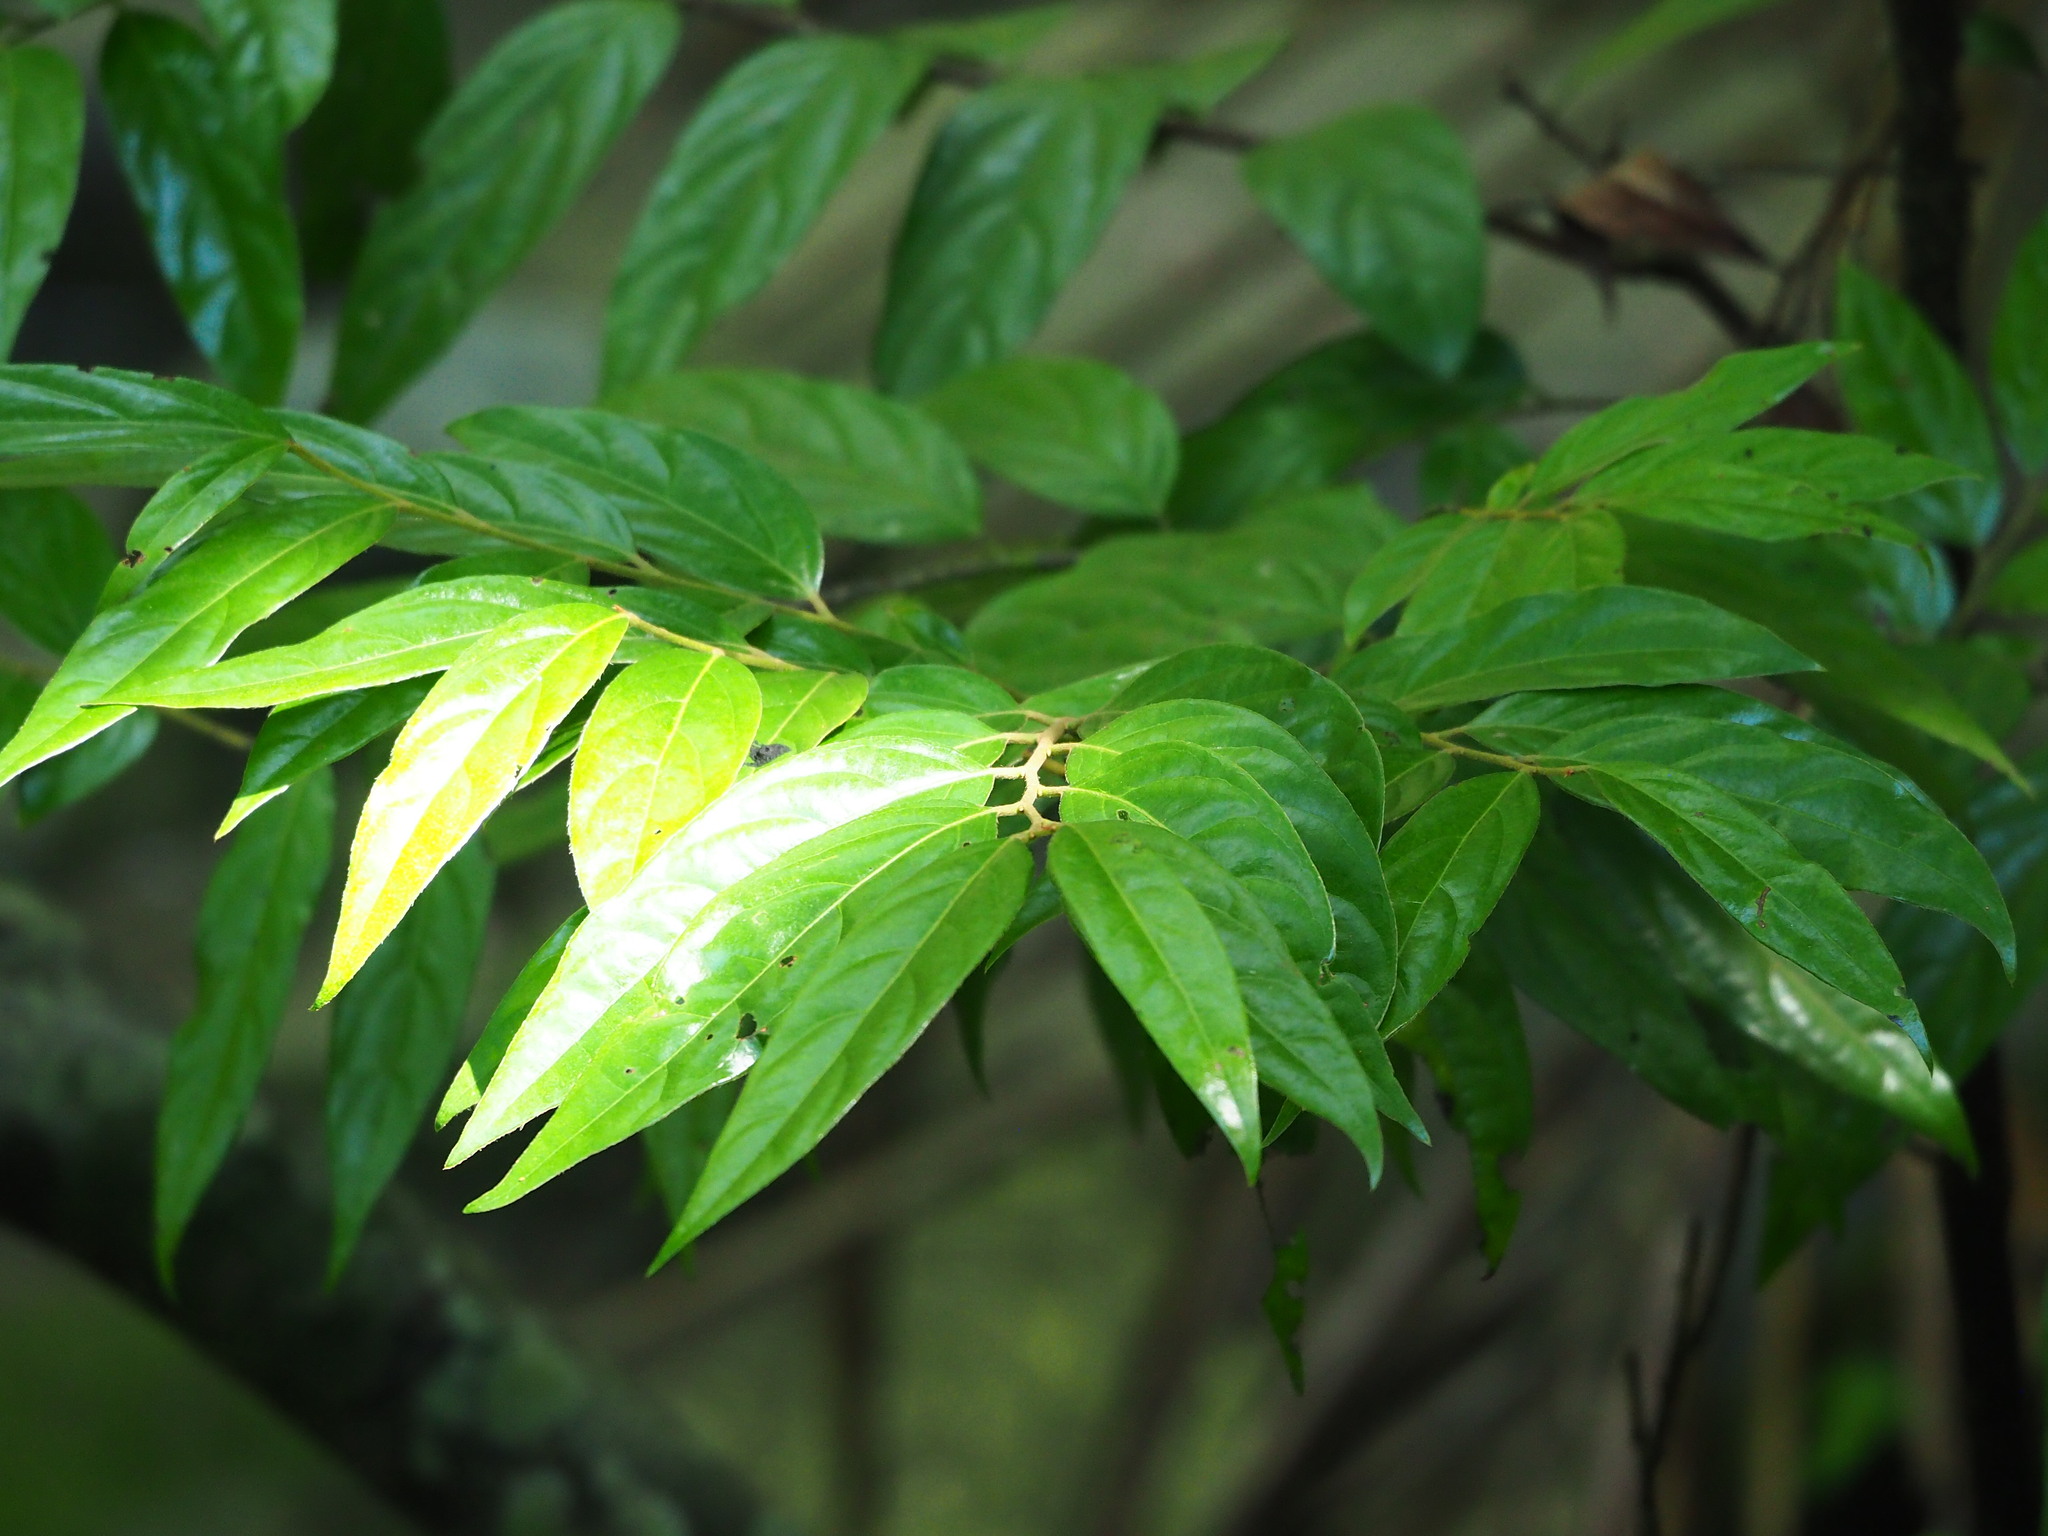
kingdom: Plantae
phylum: Tracheophyta
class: Magnoliopsida
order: Ericales
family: Ebenaceae
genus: Diospyros
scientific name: Diospyros eriantha
